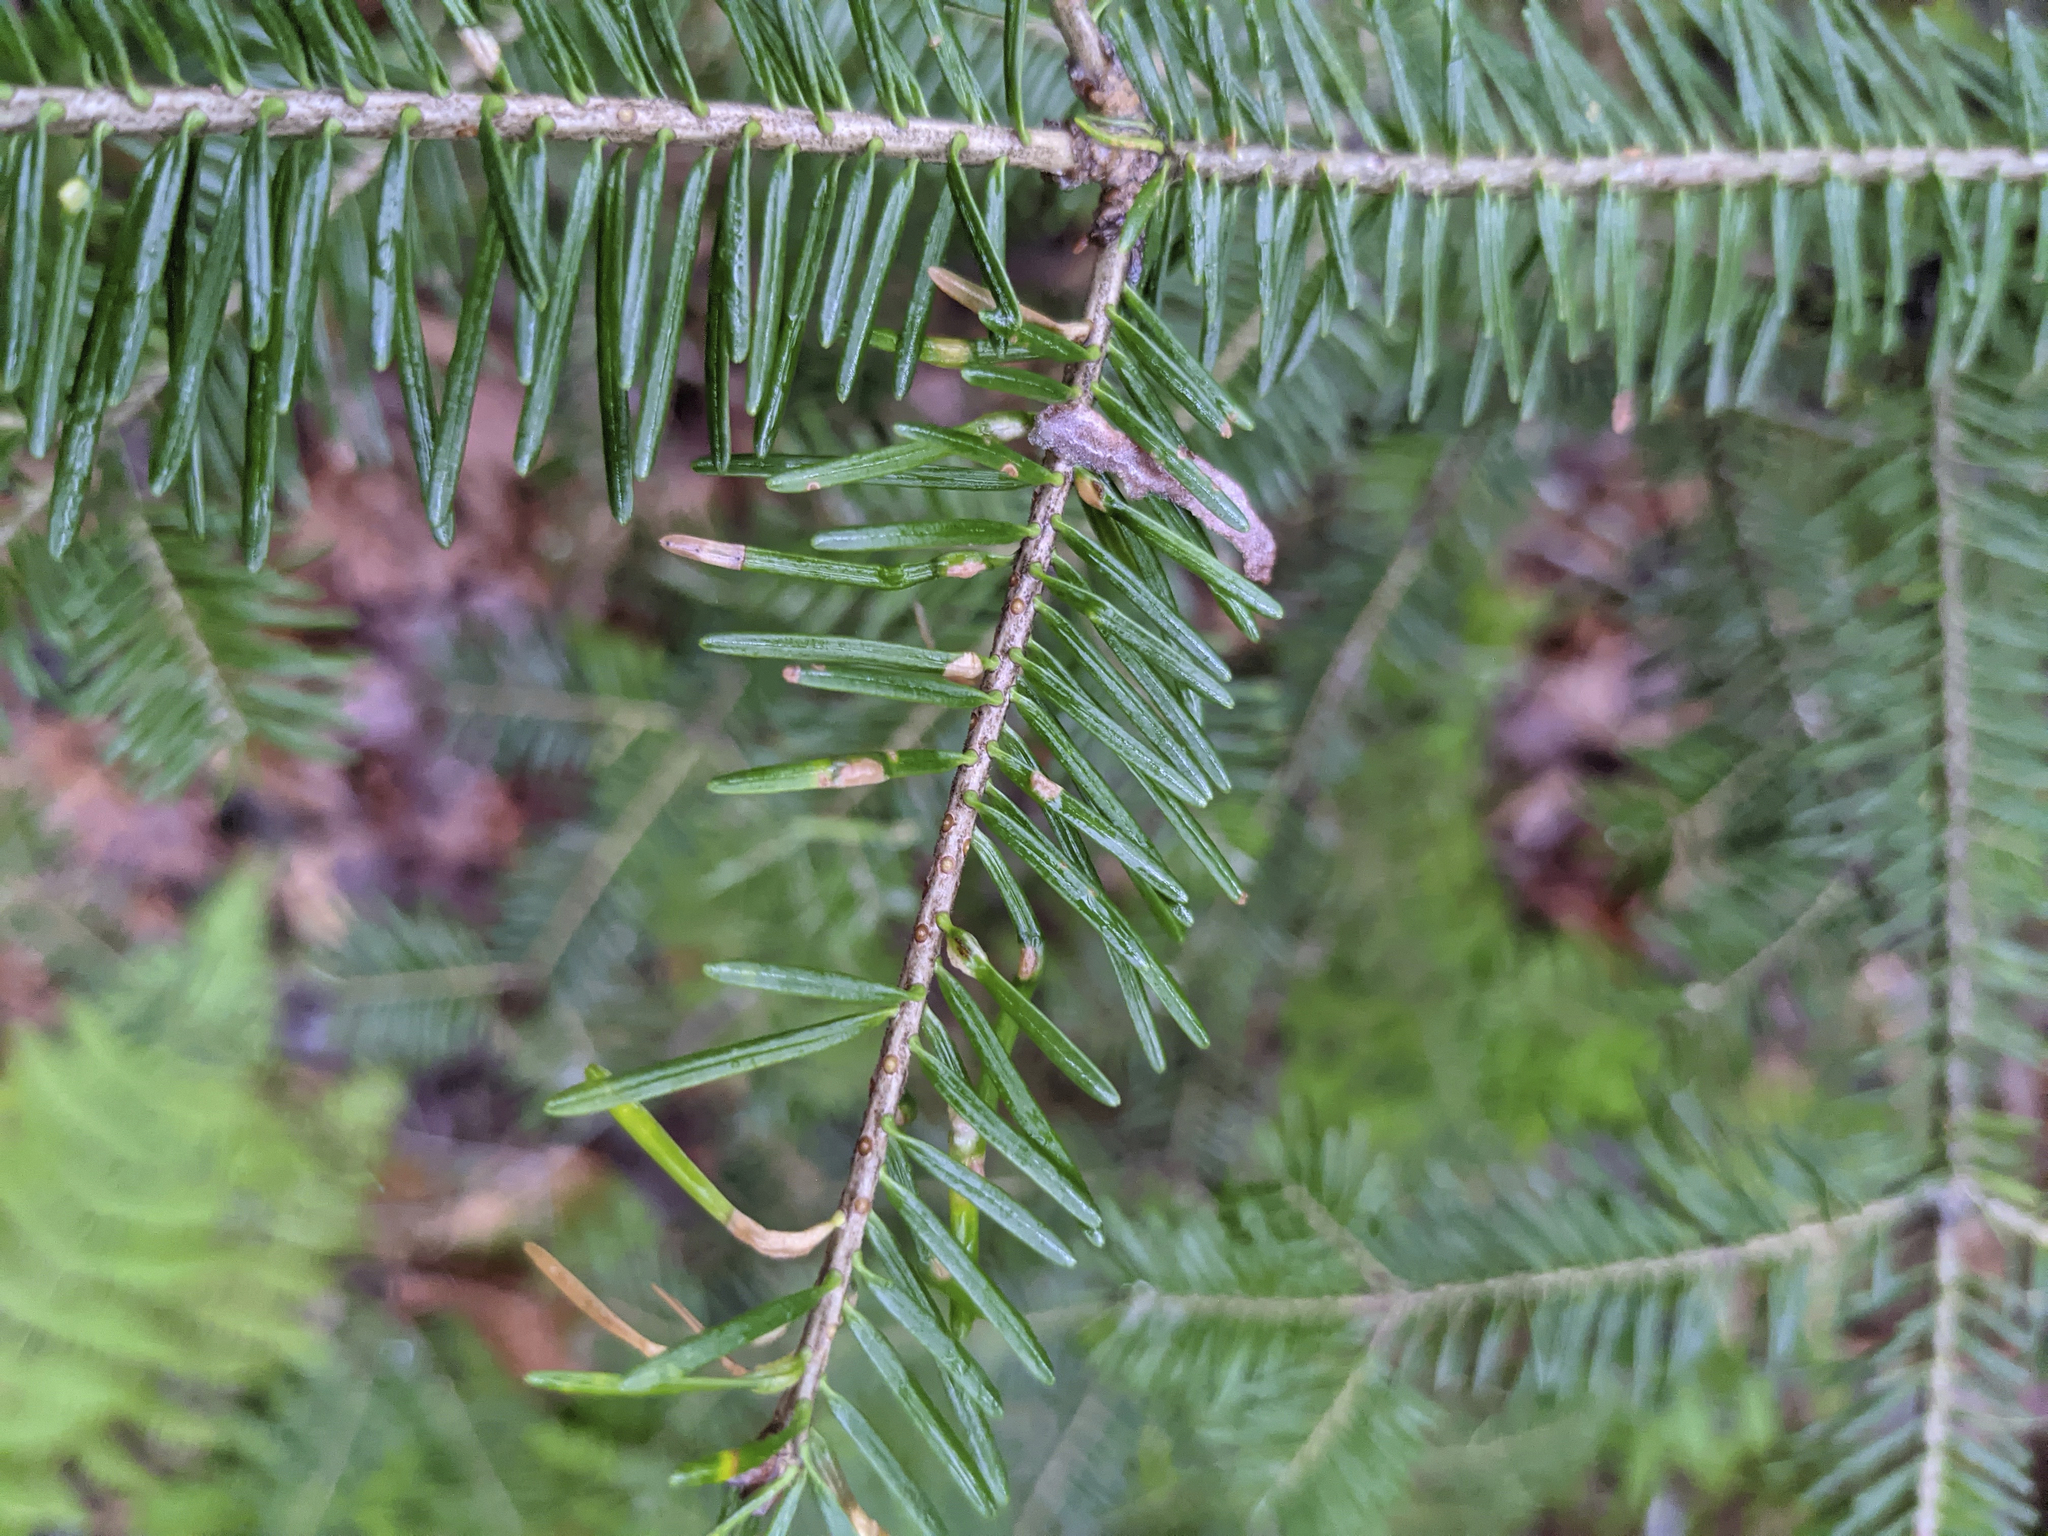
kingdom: Plantae
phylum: Tracheophyta
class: Pinopsida
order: Pinales
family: Pinaceae
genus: Abies
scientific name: Abies balsamea
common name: Balsam fir
